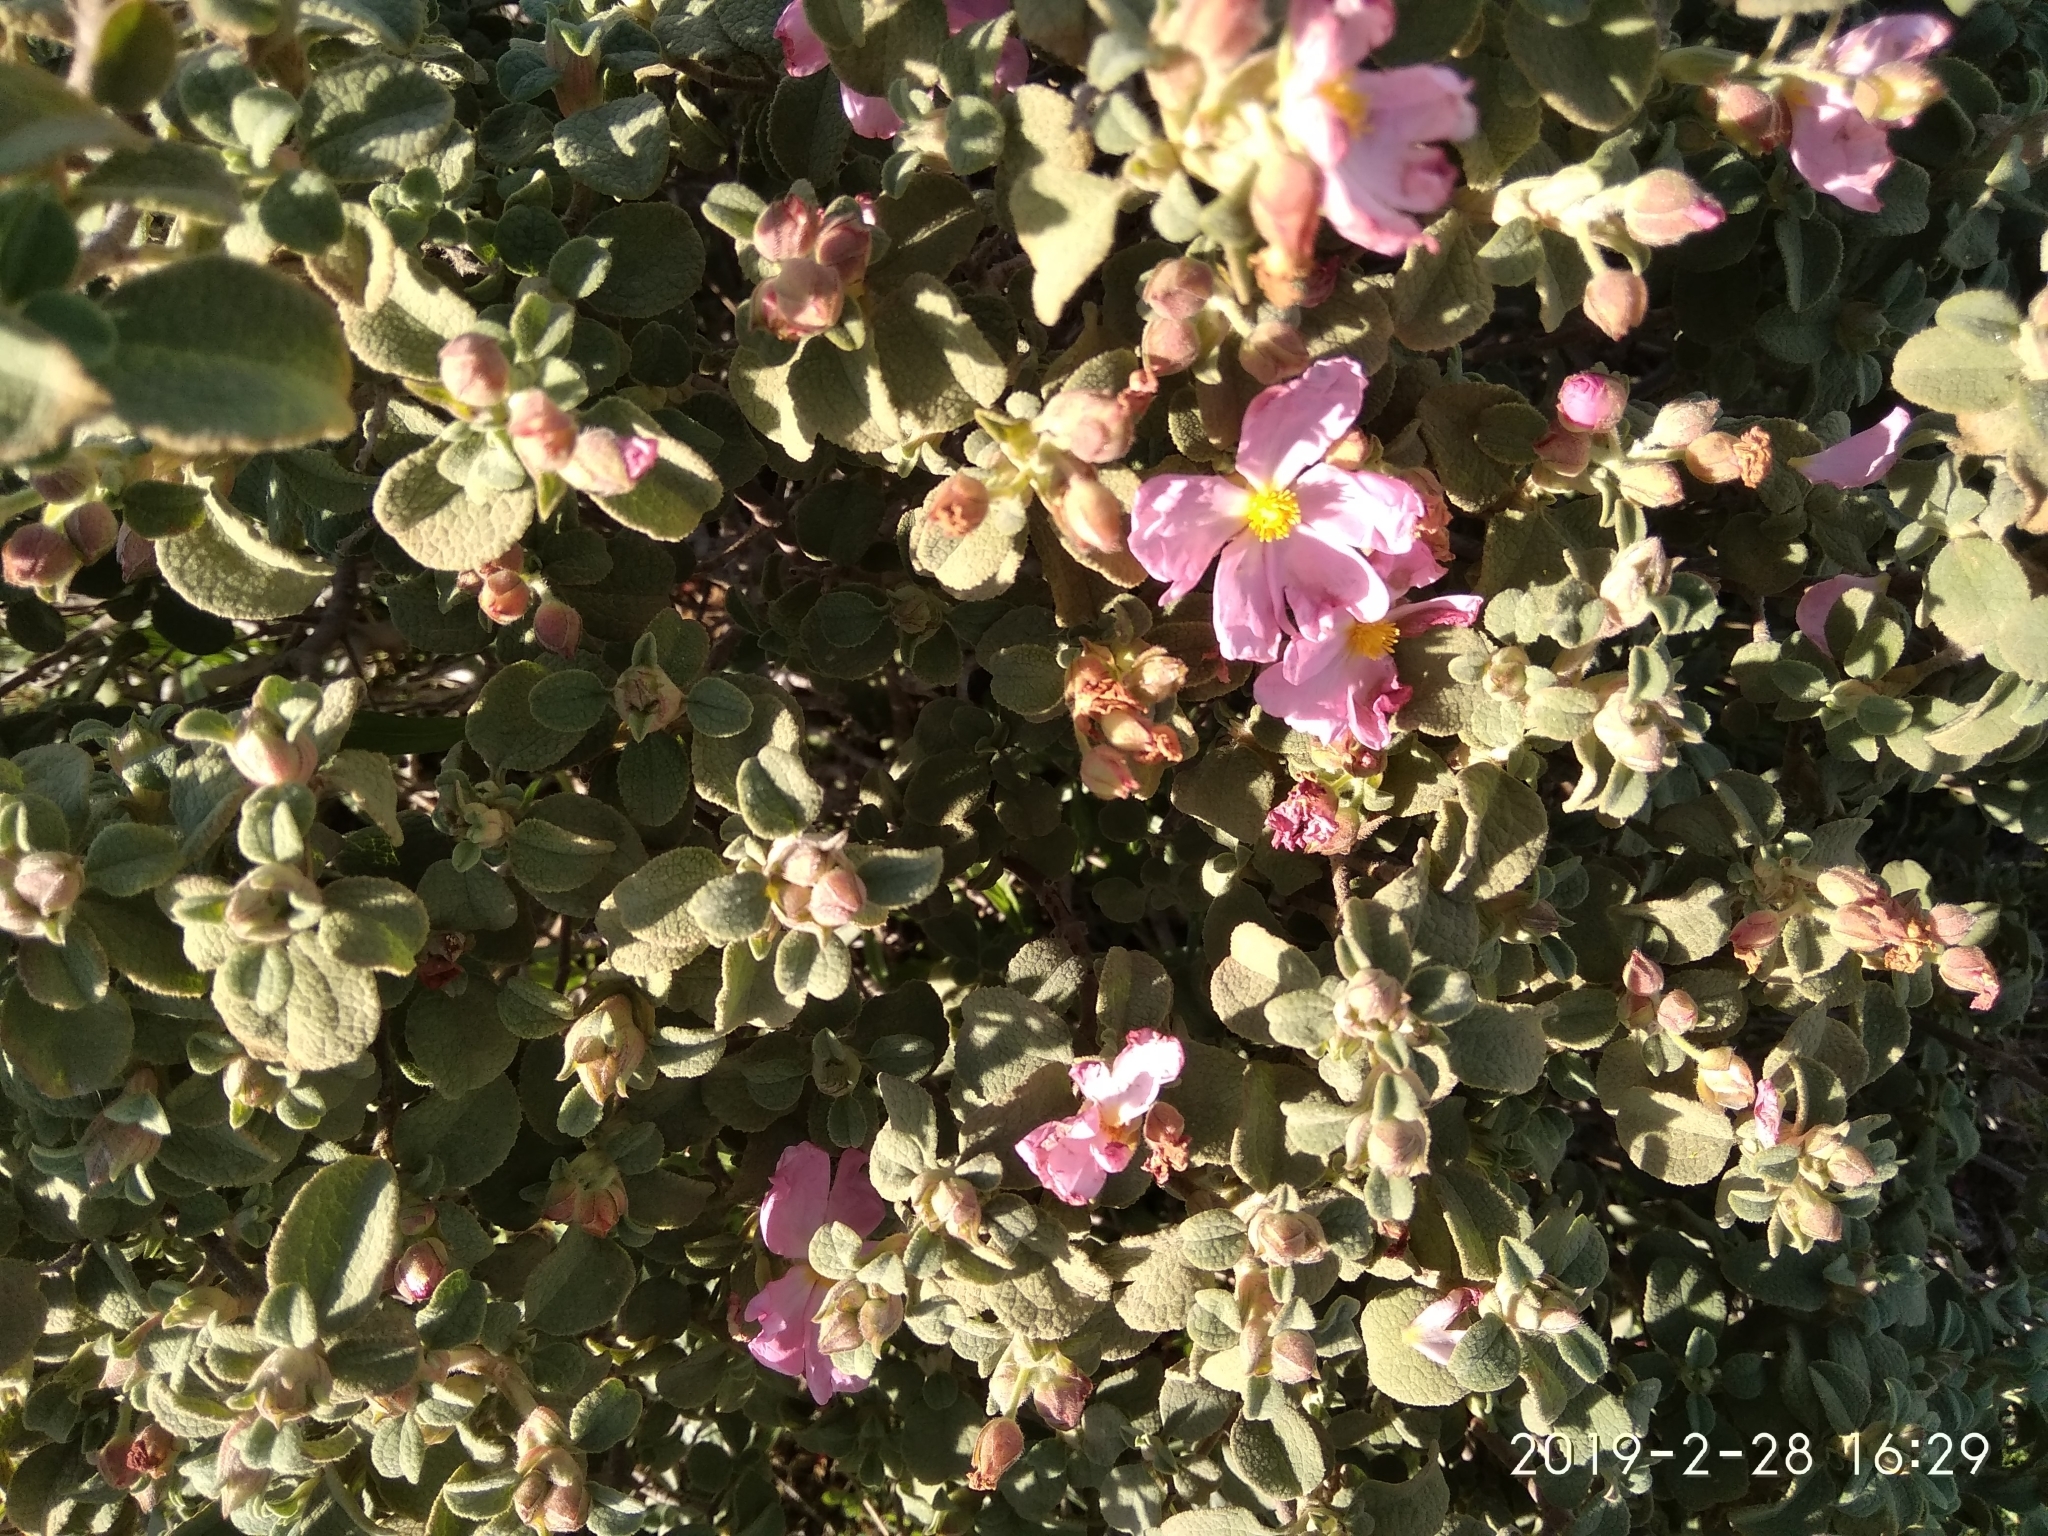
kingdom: Plantae
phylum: Tracheophyta
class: Magnoliopsida
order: Malvales
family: Cistaceae
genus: Cistus
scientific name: Cistus parviflorus
